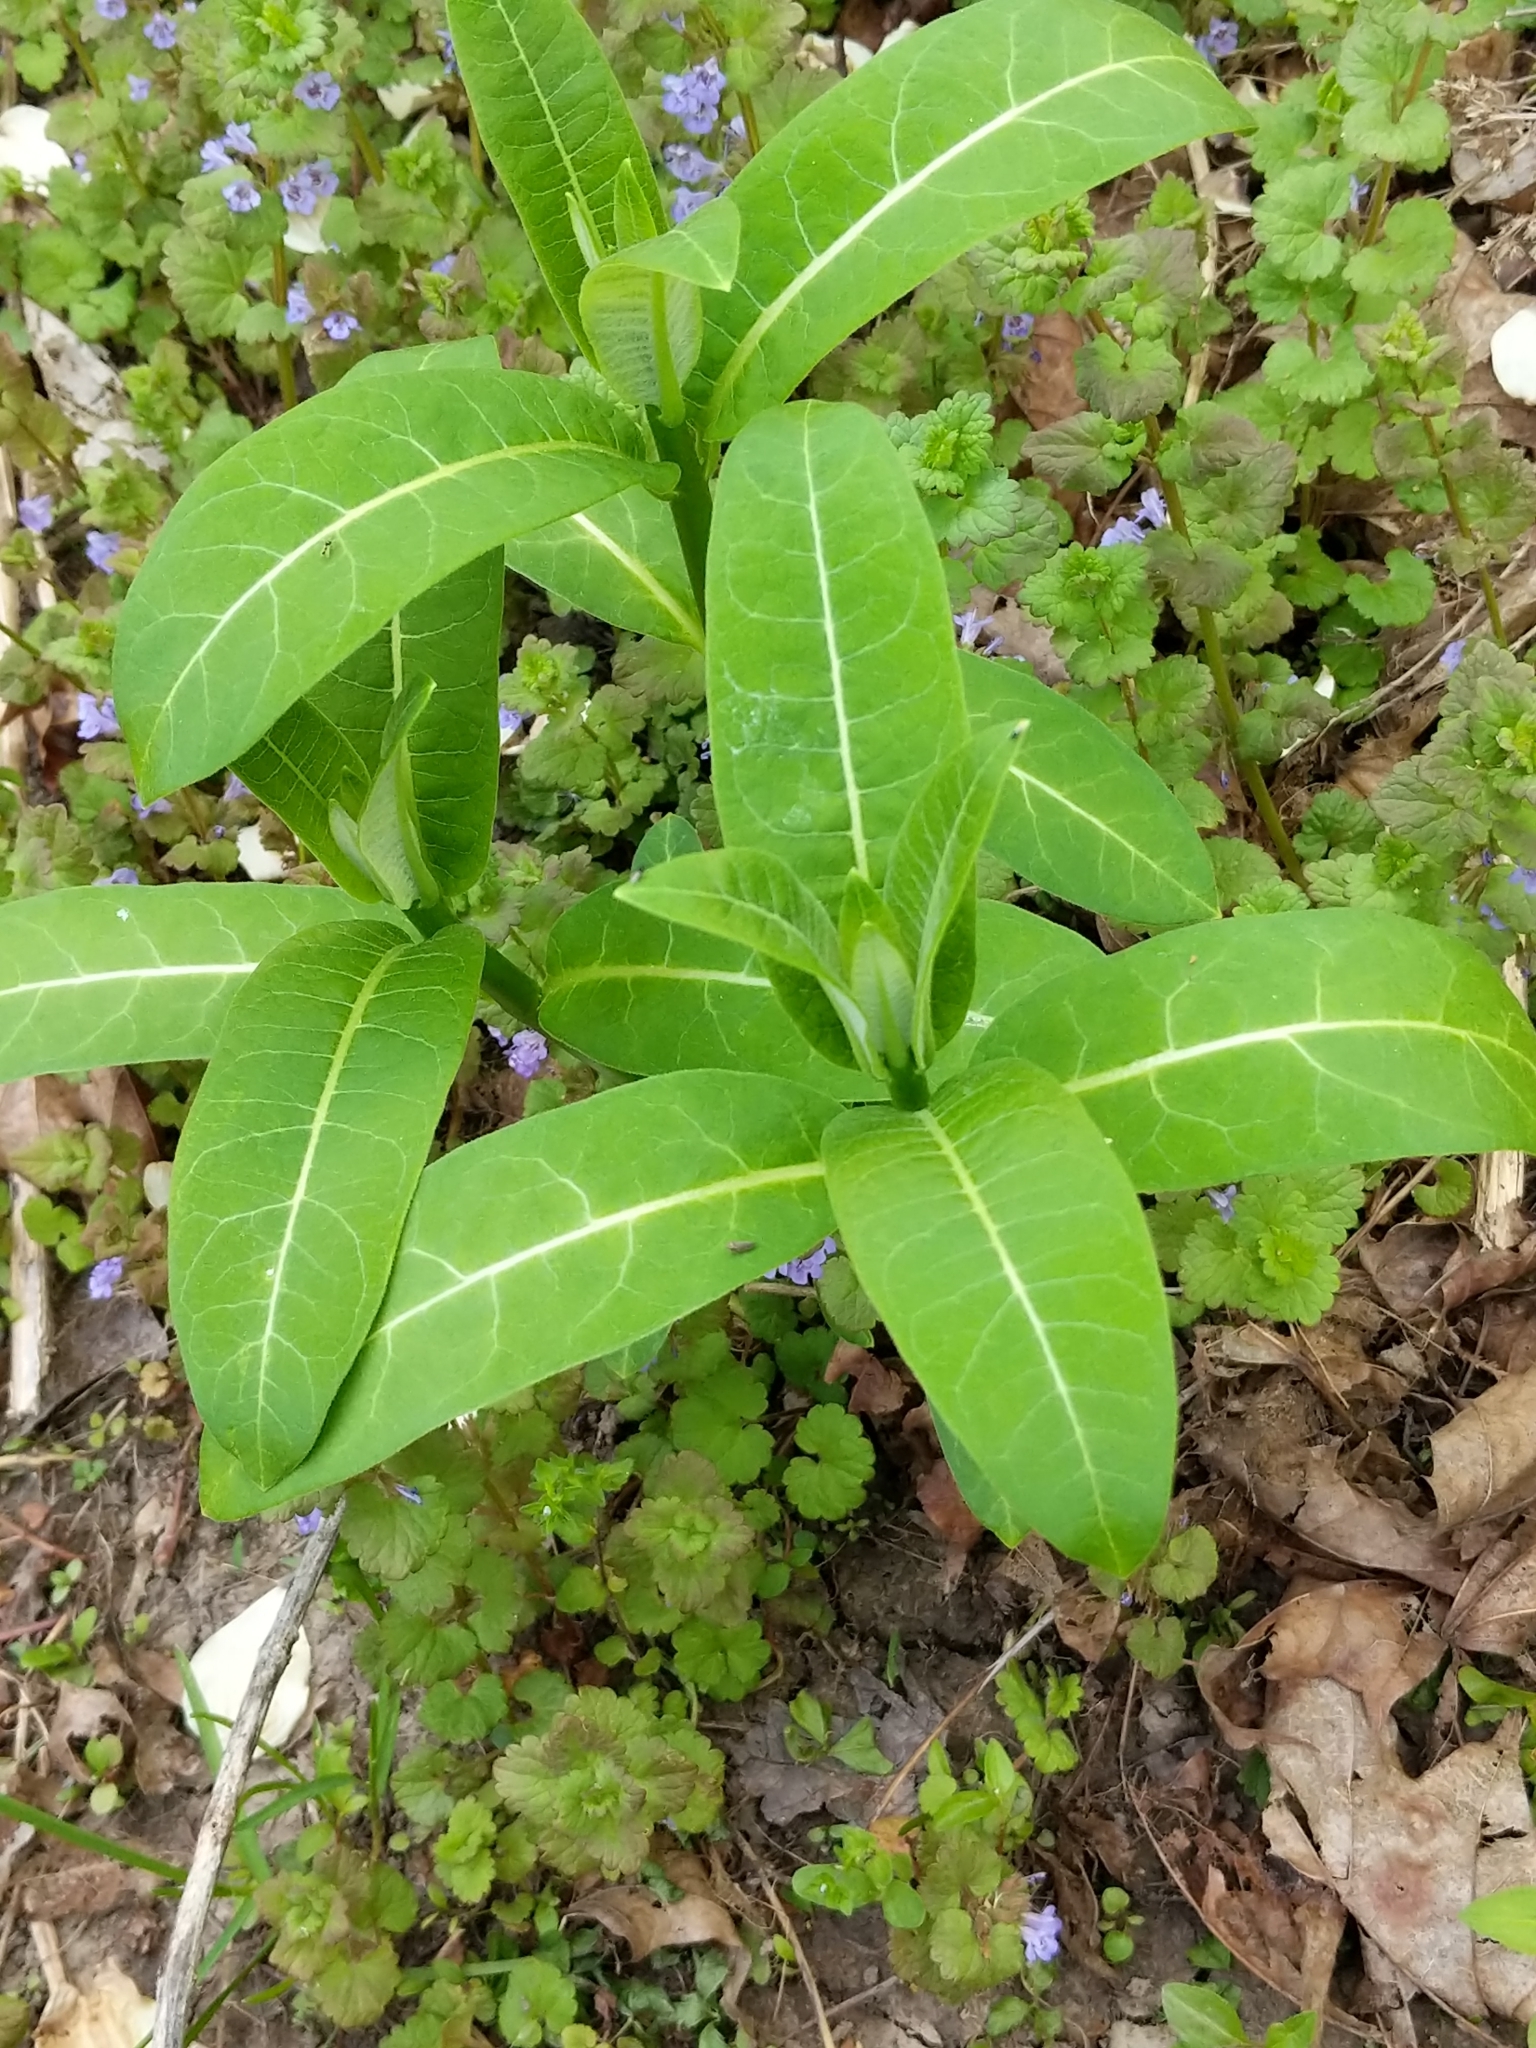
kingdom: Plantae
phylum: Tracheophyta
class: Magnoliopsida
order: Gentianales
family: Apocynaceae
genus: Asclepias
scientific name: Asclepias syriaca
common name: Common milkweed
